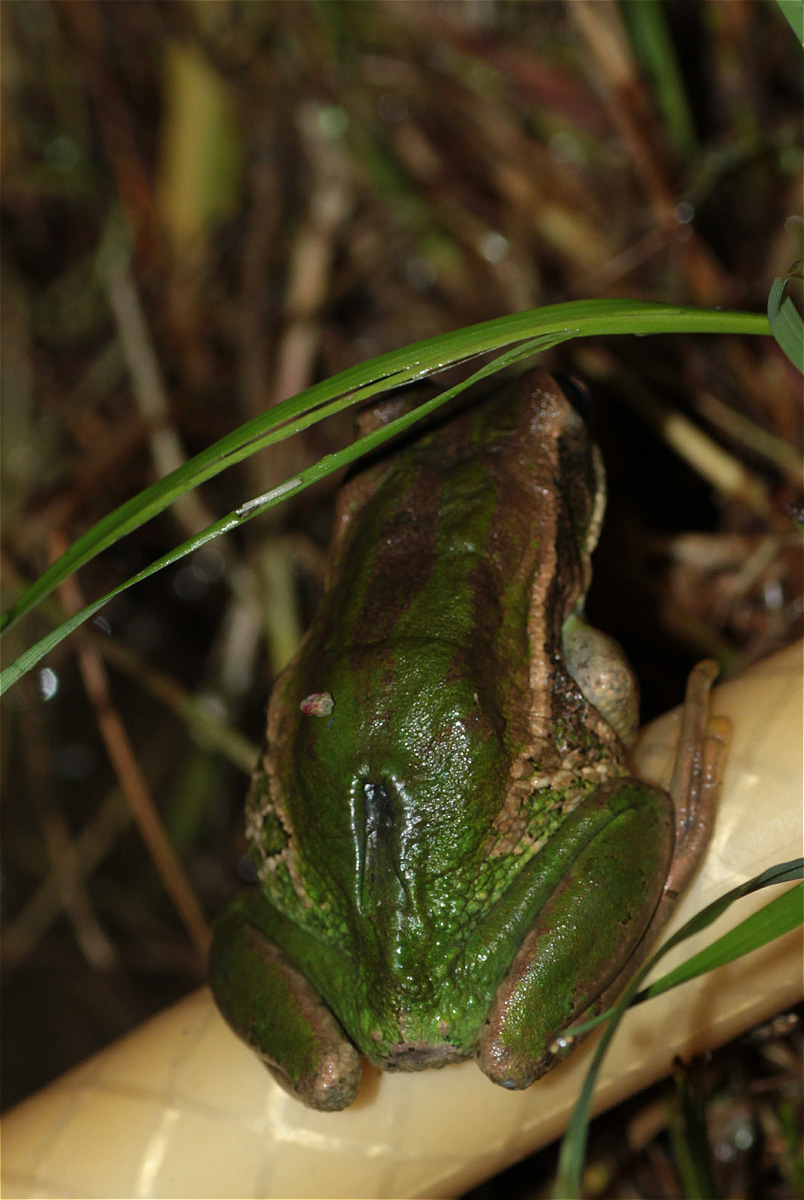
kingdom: Animalia
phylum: Chordata
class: Amphibia
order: Anura
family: Hemiphractidae
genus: Gastrotheca
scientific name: Gastrotheca cuencana
